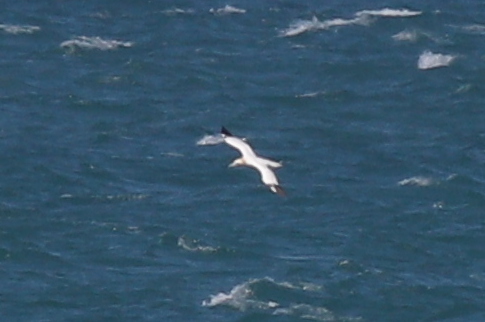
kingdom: Animalia
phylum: Chordata
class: Aves
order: Suliformes
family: Sulidae
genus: Morus
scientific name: Morus bassanus
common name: Northern gannet
